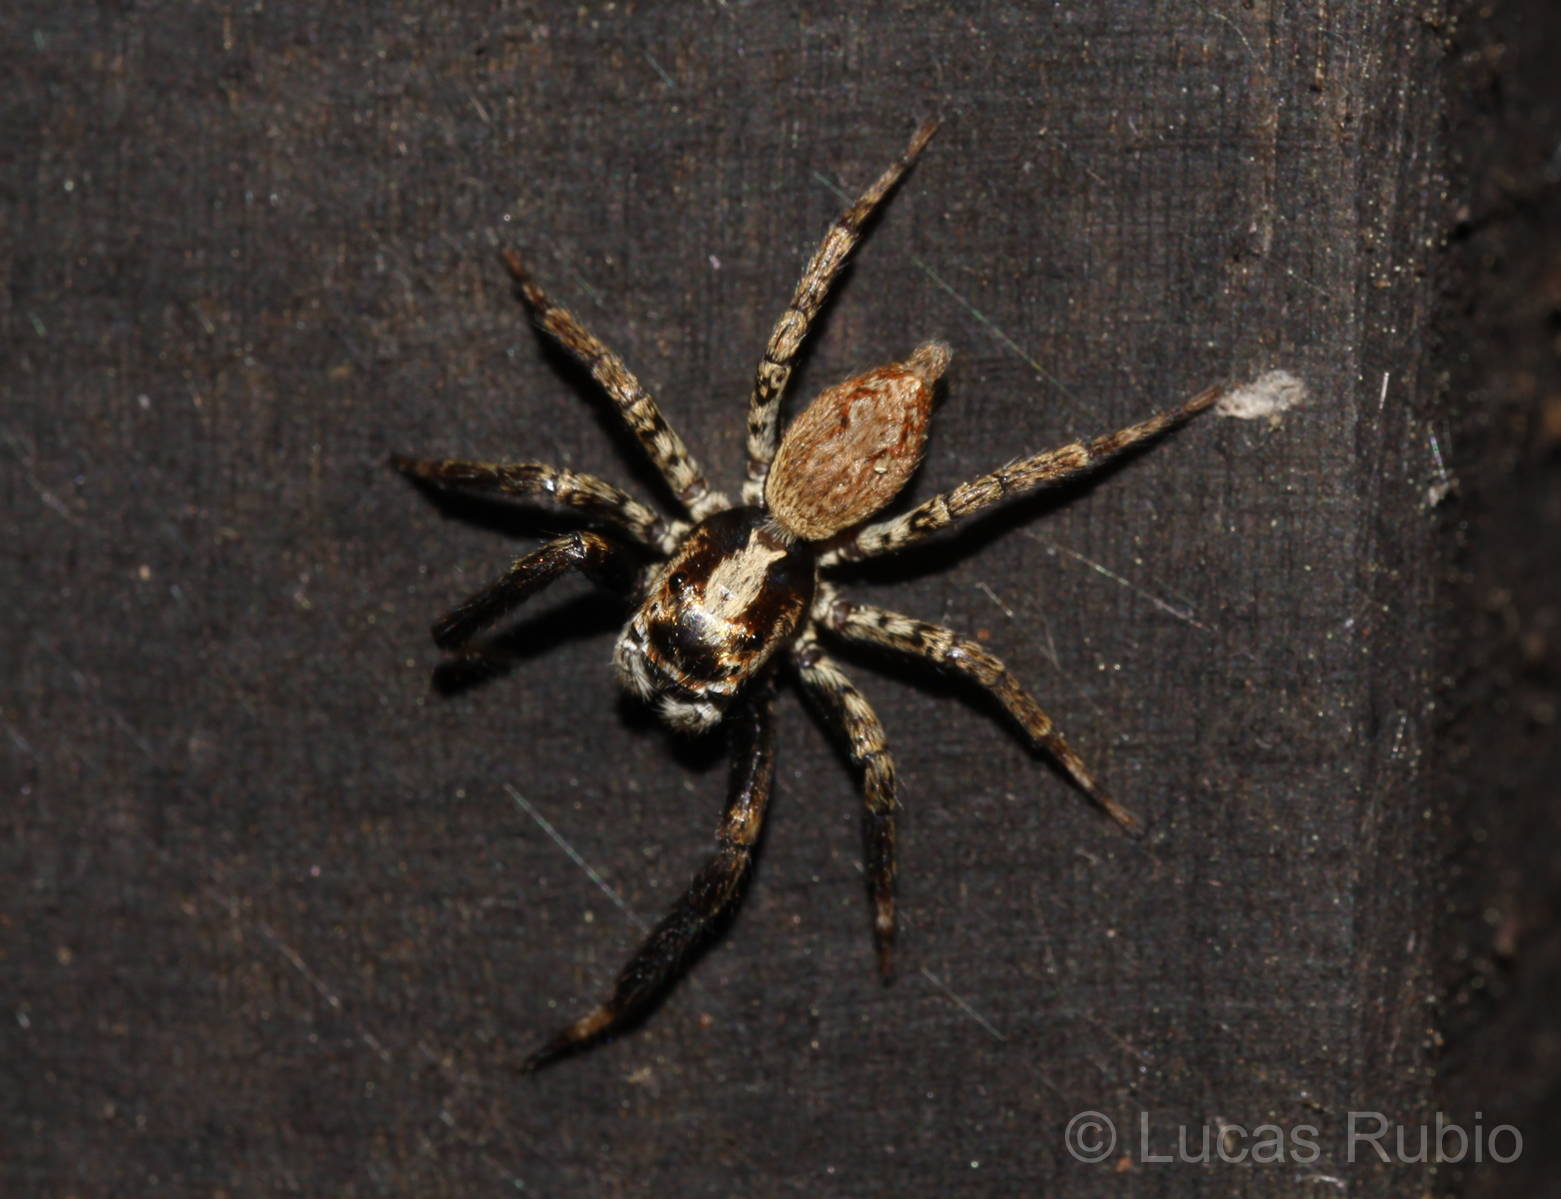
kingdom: Animalia
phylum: Arthropoda
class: Arachnida
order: Araneae
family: Salticidae
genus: Asaphobelis
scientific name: Asaphobelis physonychus
